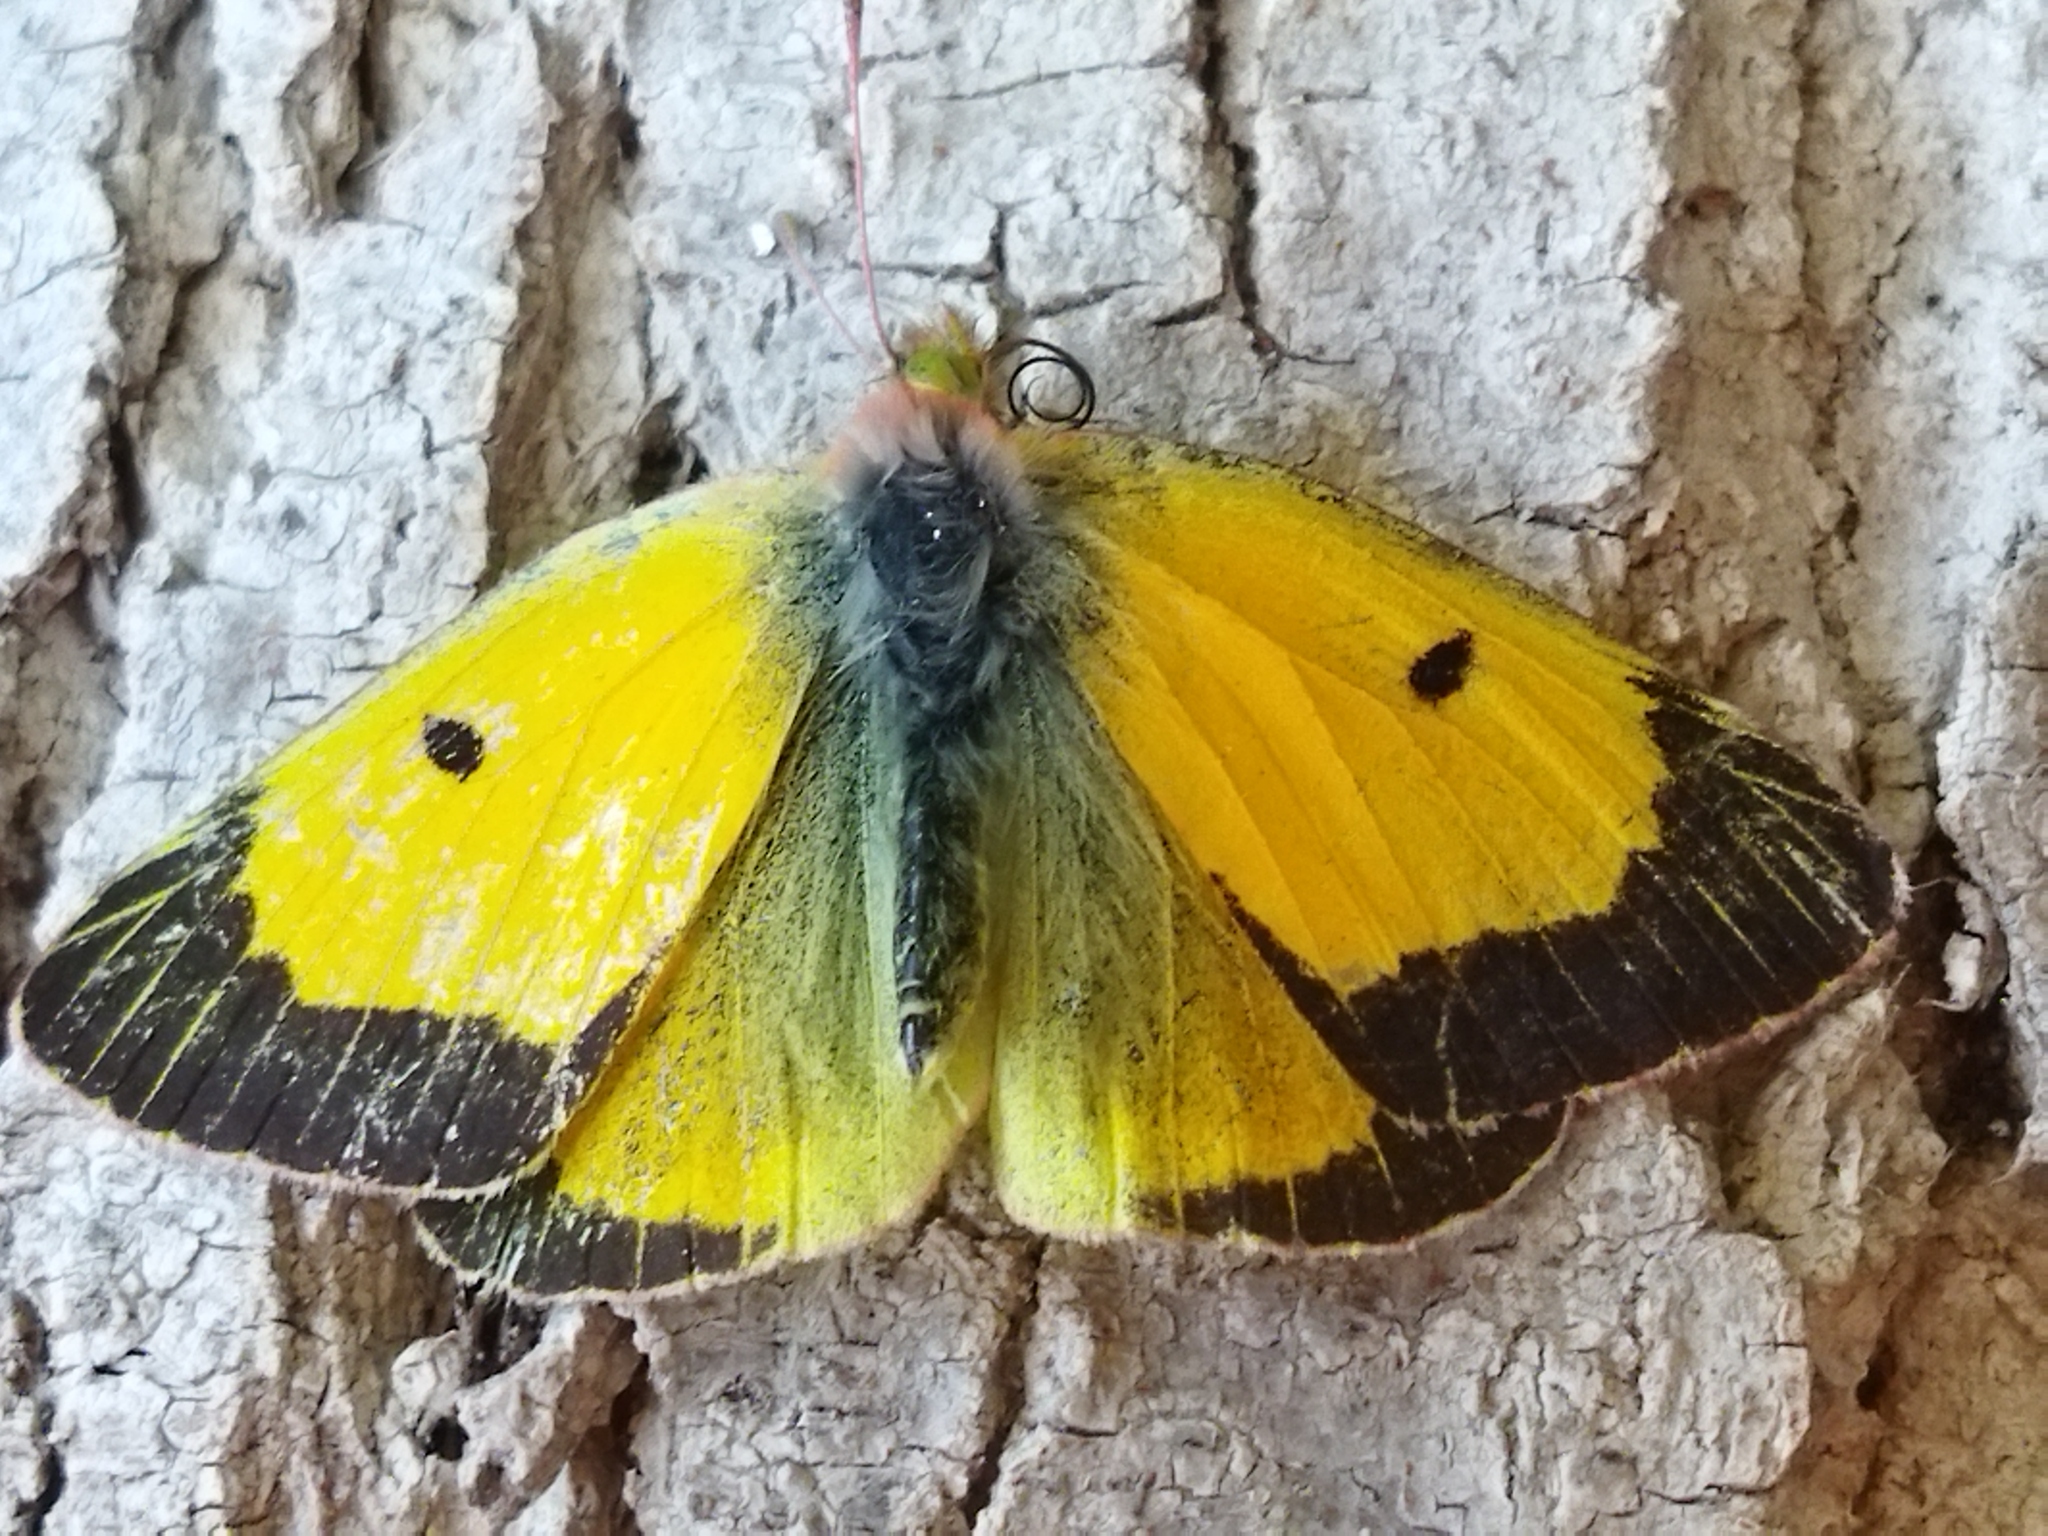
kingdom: Animalia
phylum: Arthropoda
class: Insecta
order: Lepidoptera
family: Pieridae
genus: Colias
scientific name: Colias croceus
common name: Clouded yellow
